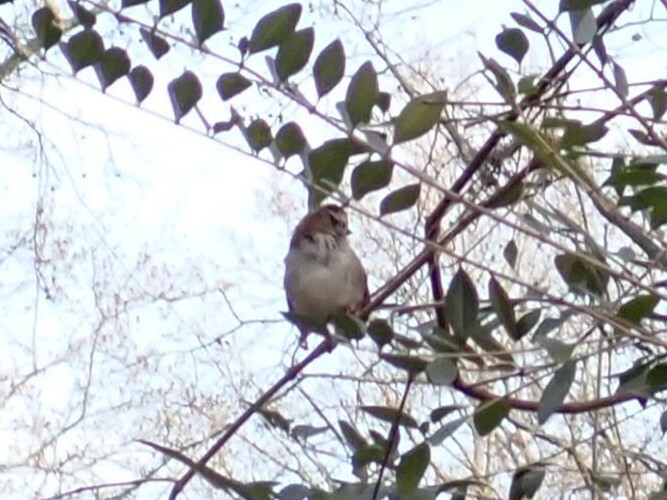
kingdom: Animalia
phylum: Chordata
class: Aves
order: Passeriformes
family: Passerellidae
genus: Zonotrichia
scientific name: Zonotrichia albicollis
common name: White-throated sparrow
